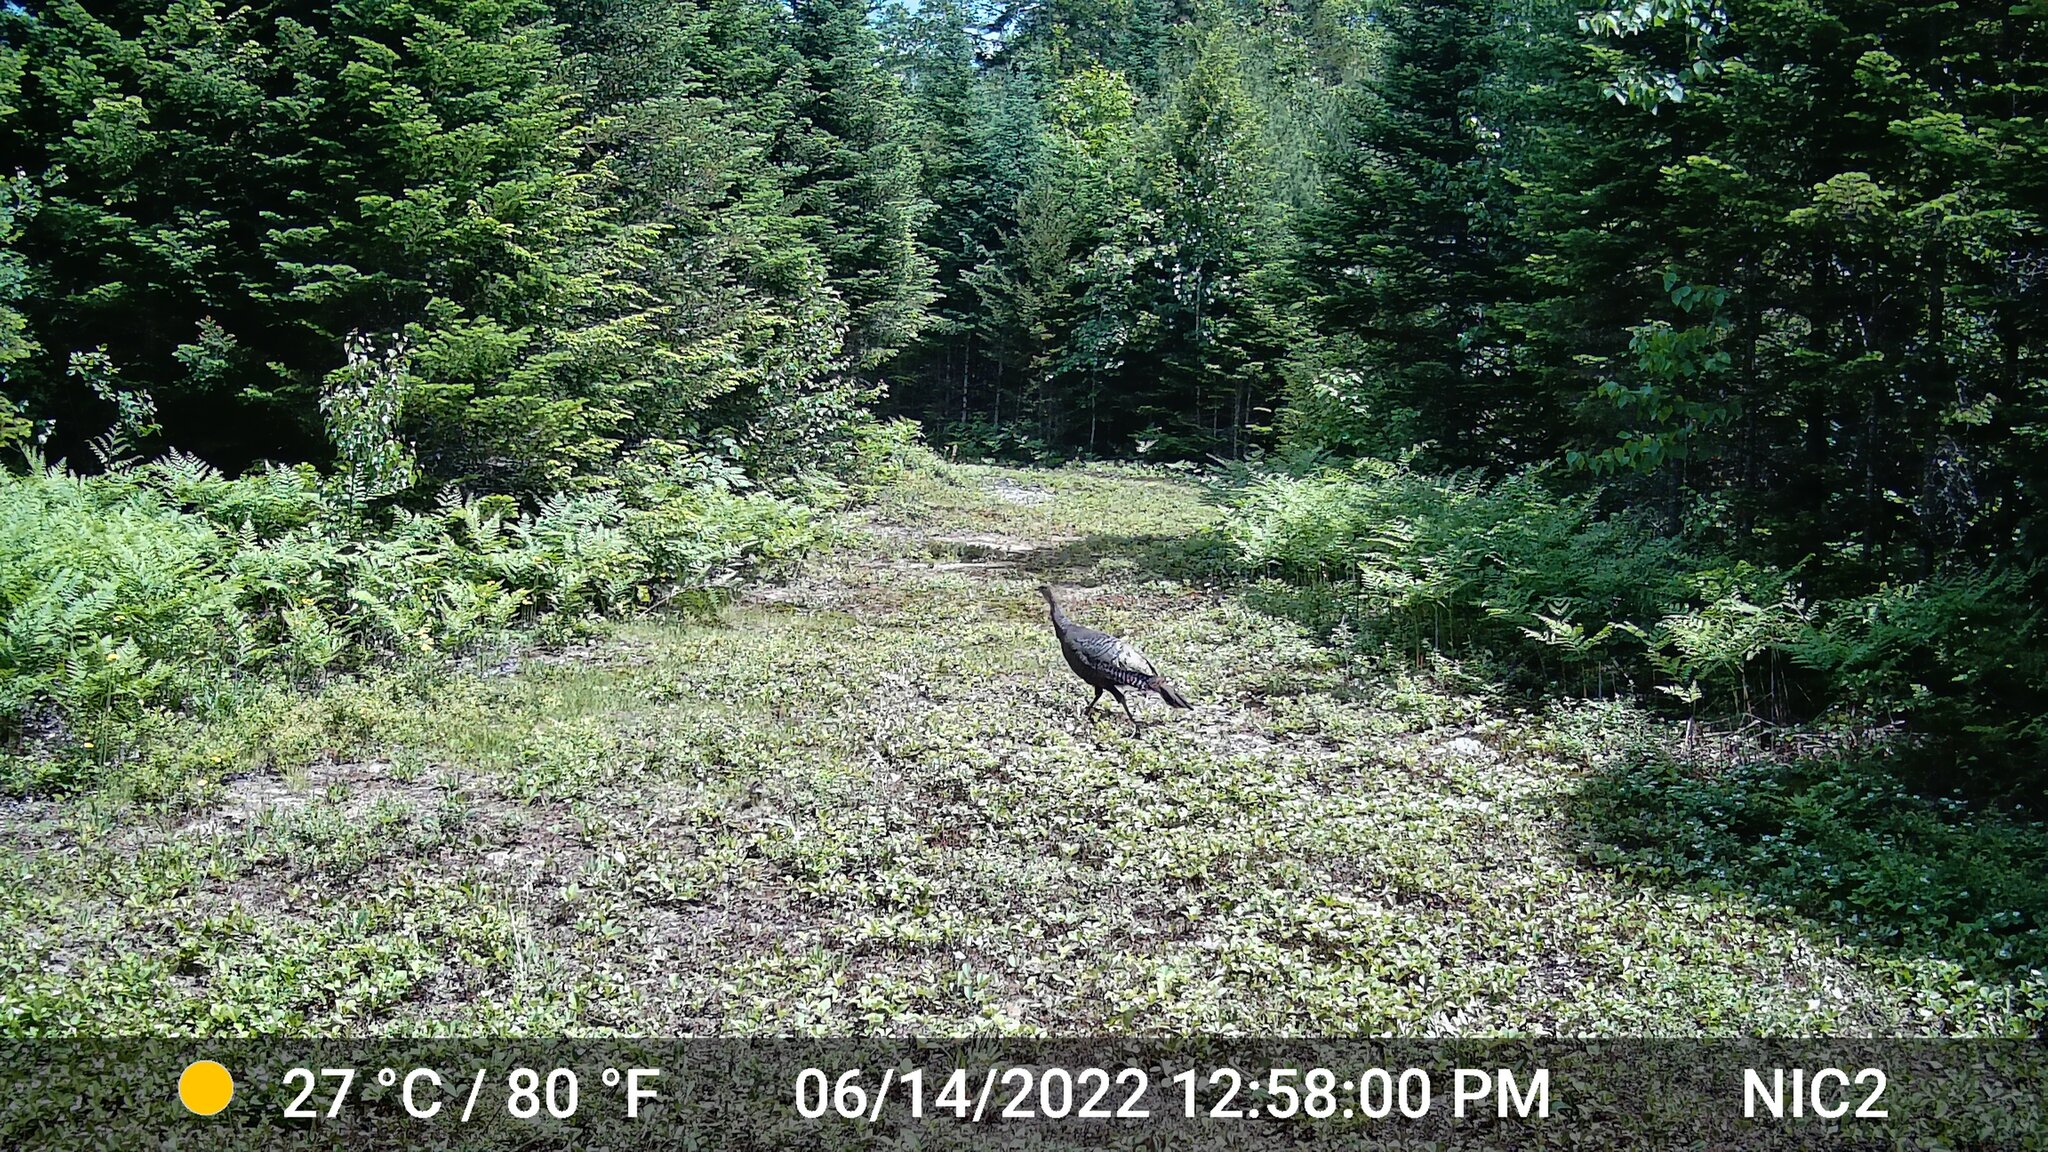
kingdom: Animalia
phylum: Chordata
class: Aves
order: Galliformes
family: Phasianidae
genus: Meleagris
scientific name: Meleagris gallopavo
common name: Wild turkey
